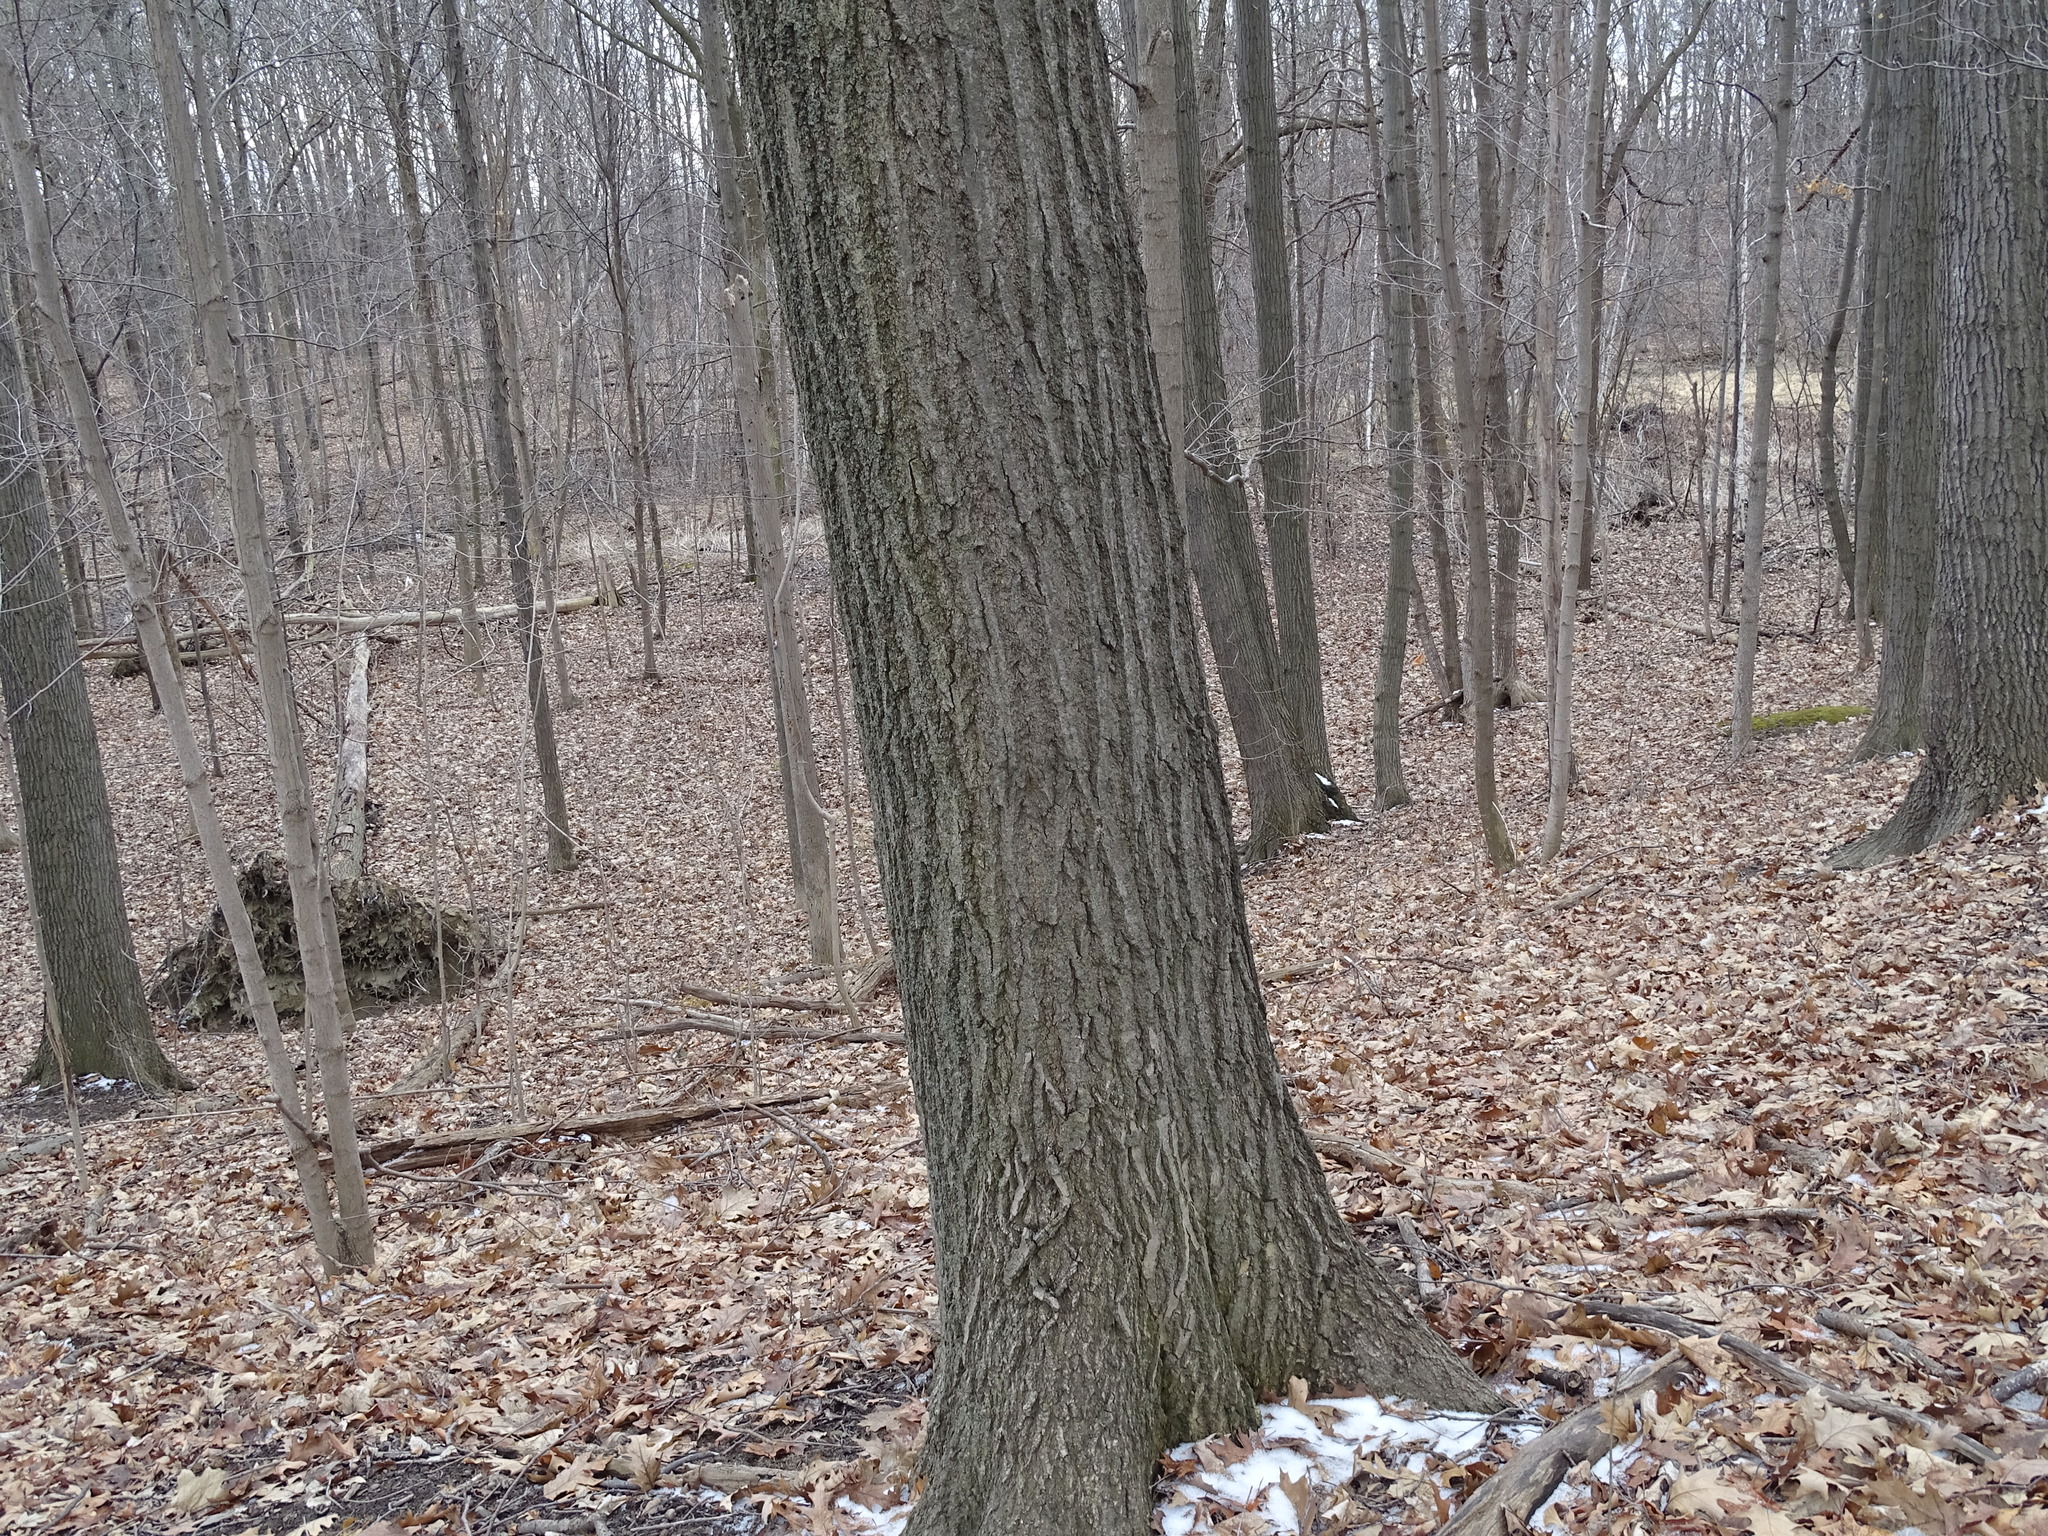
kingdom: Plantae
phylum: Tracheophyta
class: Magnoliopsida
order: Fagales
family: Fagaceae
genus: Quercus
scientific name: Quercus rubra
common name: Red oak
